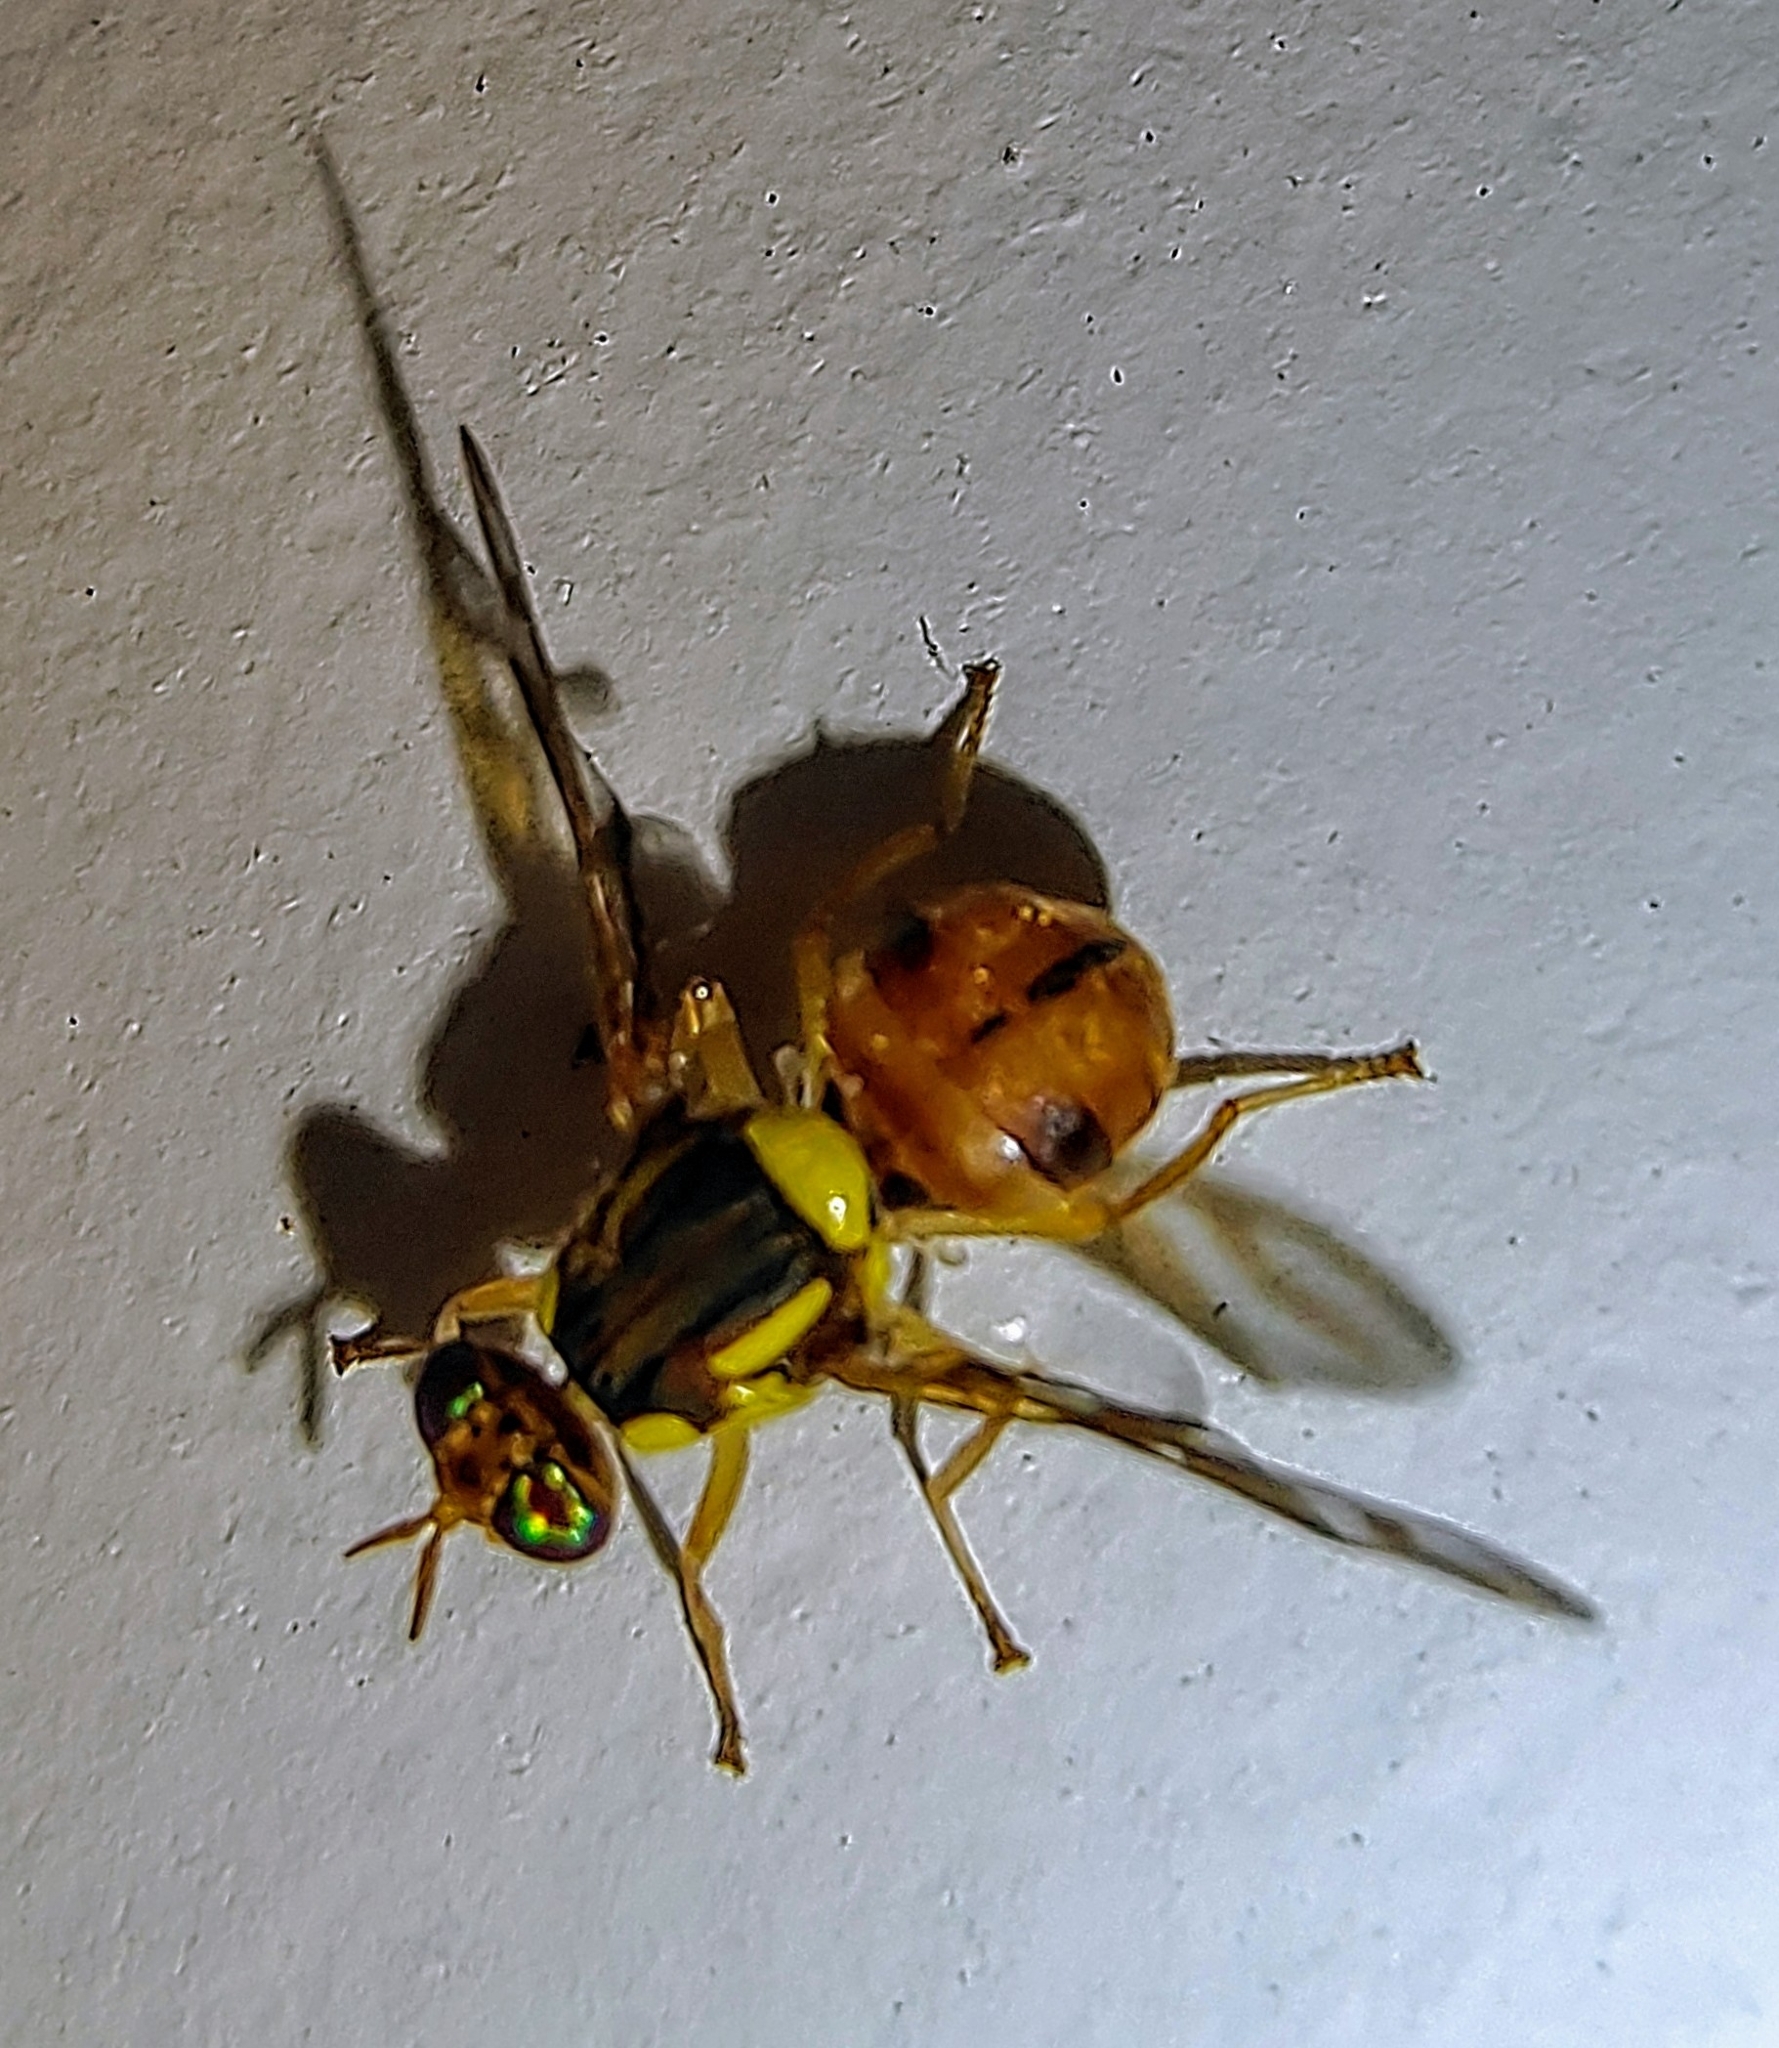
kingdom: Animalia
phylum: Arthropoda
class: Insecta
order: Diptera
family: Tephritidae
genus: Bactrocera
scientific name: Bactrocera umbrosa
